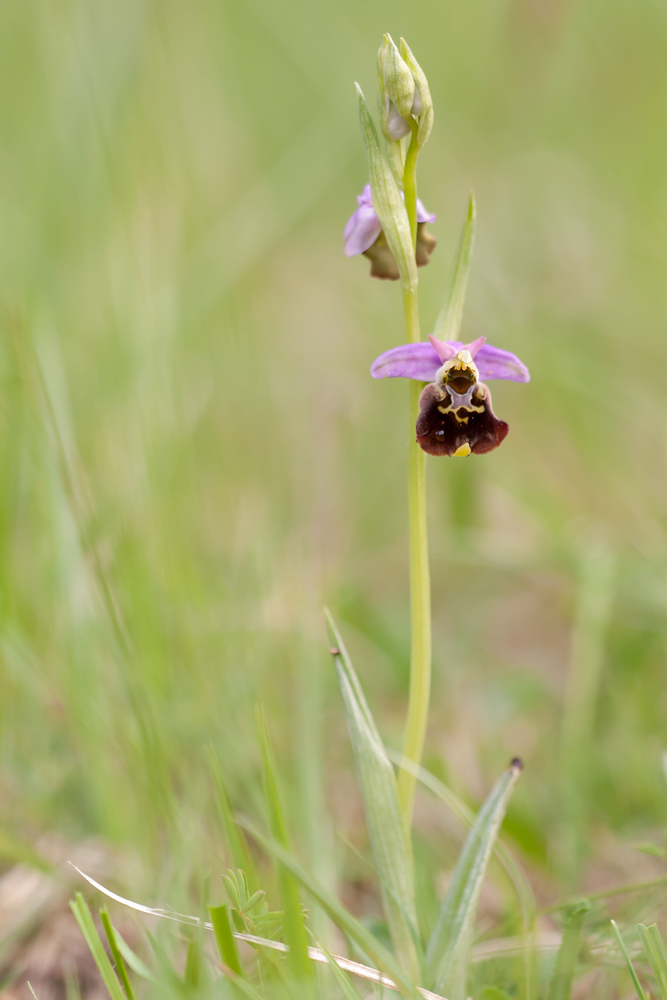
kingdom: Plantae
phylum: Tracheophyta
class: Liliopsida
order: Asparagales
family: Orchidaceae
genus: Ophrys
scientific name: Ophrys holosericea
